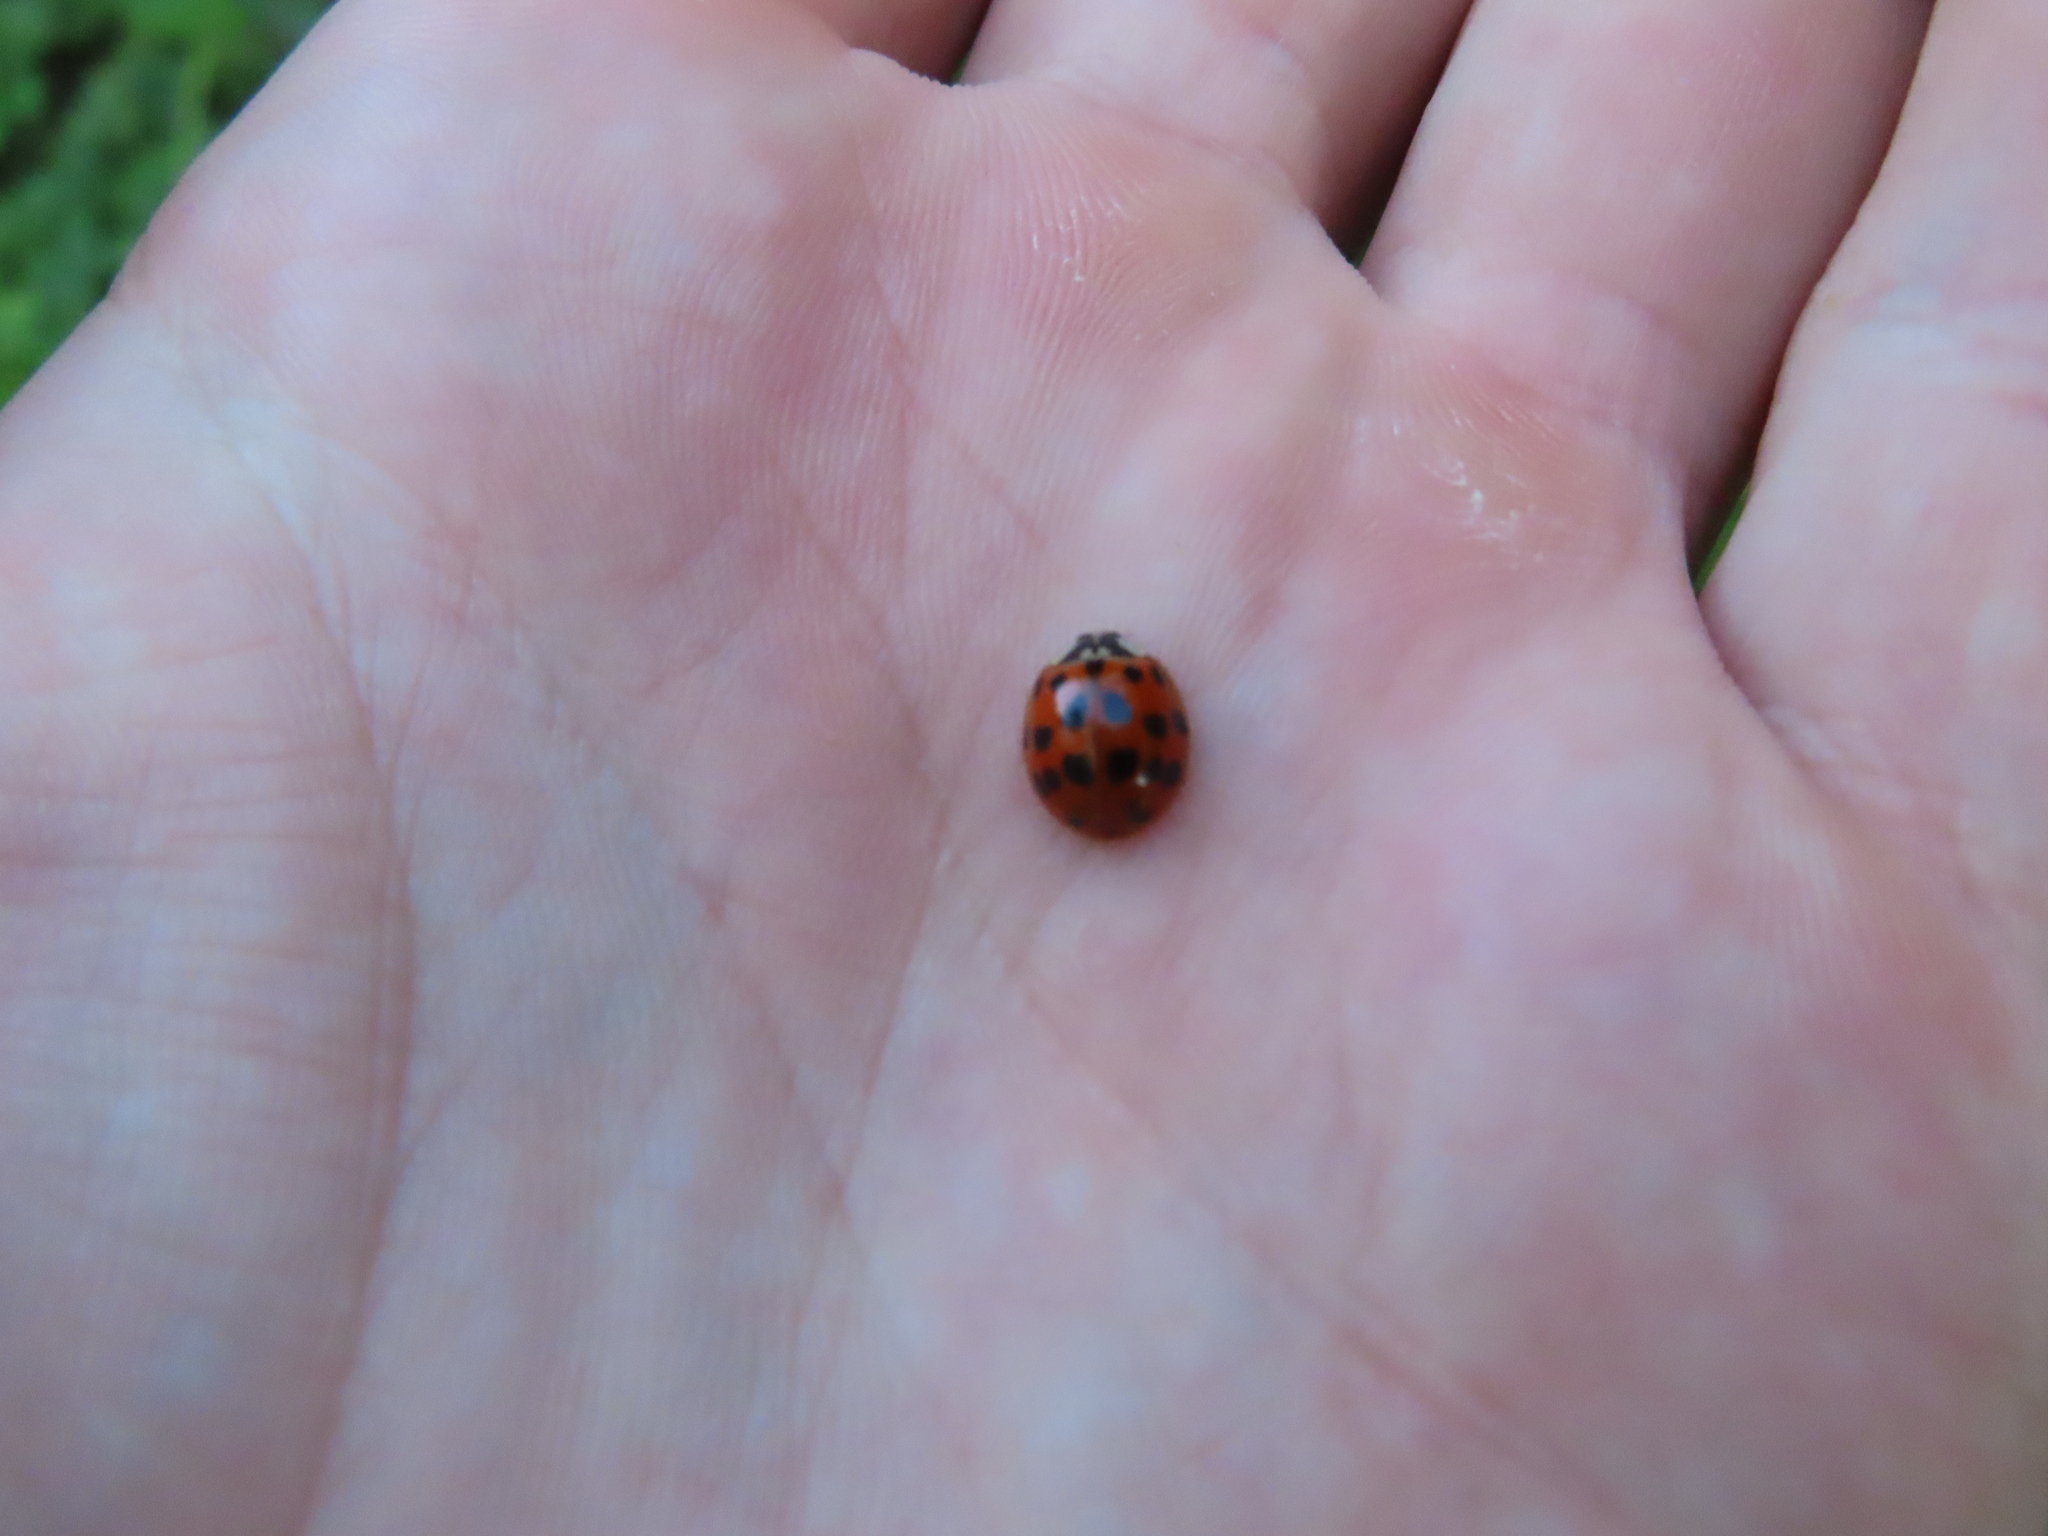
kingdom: Animalia
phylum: Arthropoda
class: Insecta
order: Coleoptera
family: Coccinellidae
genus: Harmonia
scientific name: Harmonia axyridis
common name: Harlequin ladybird
